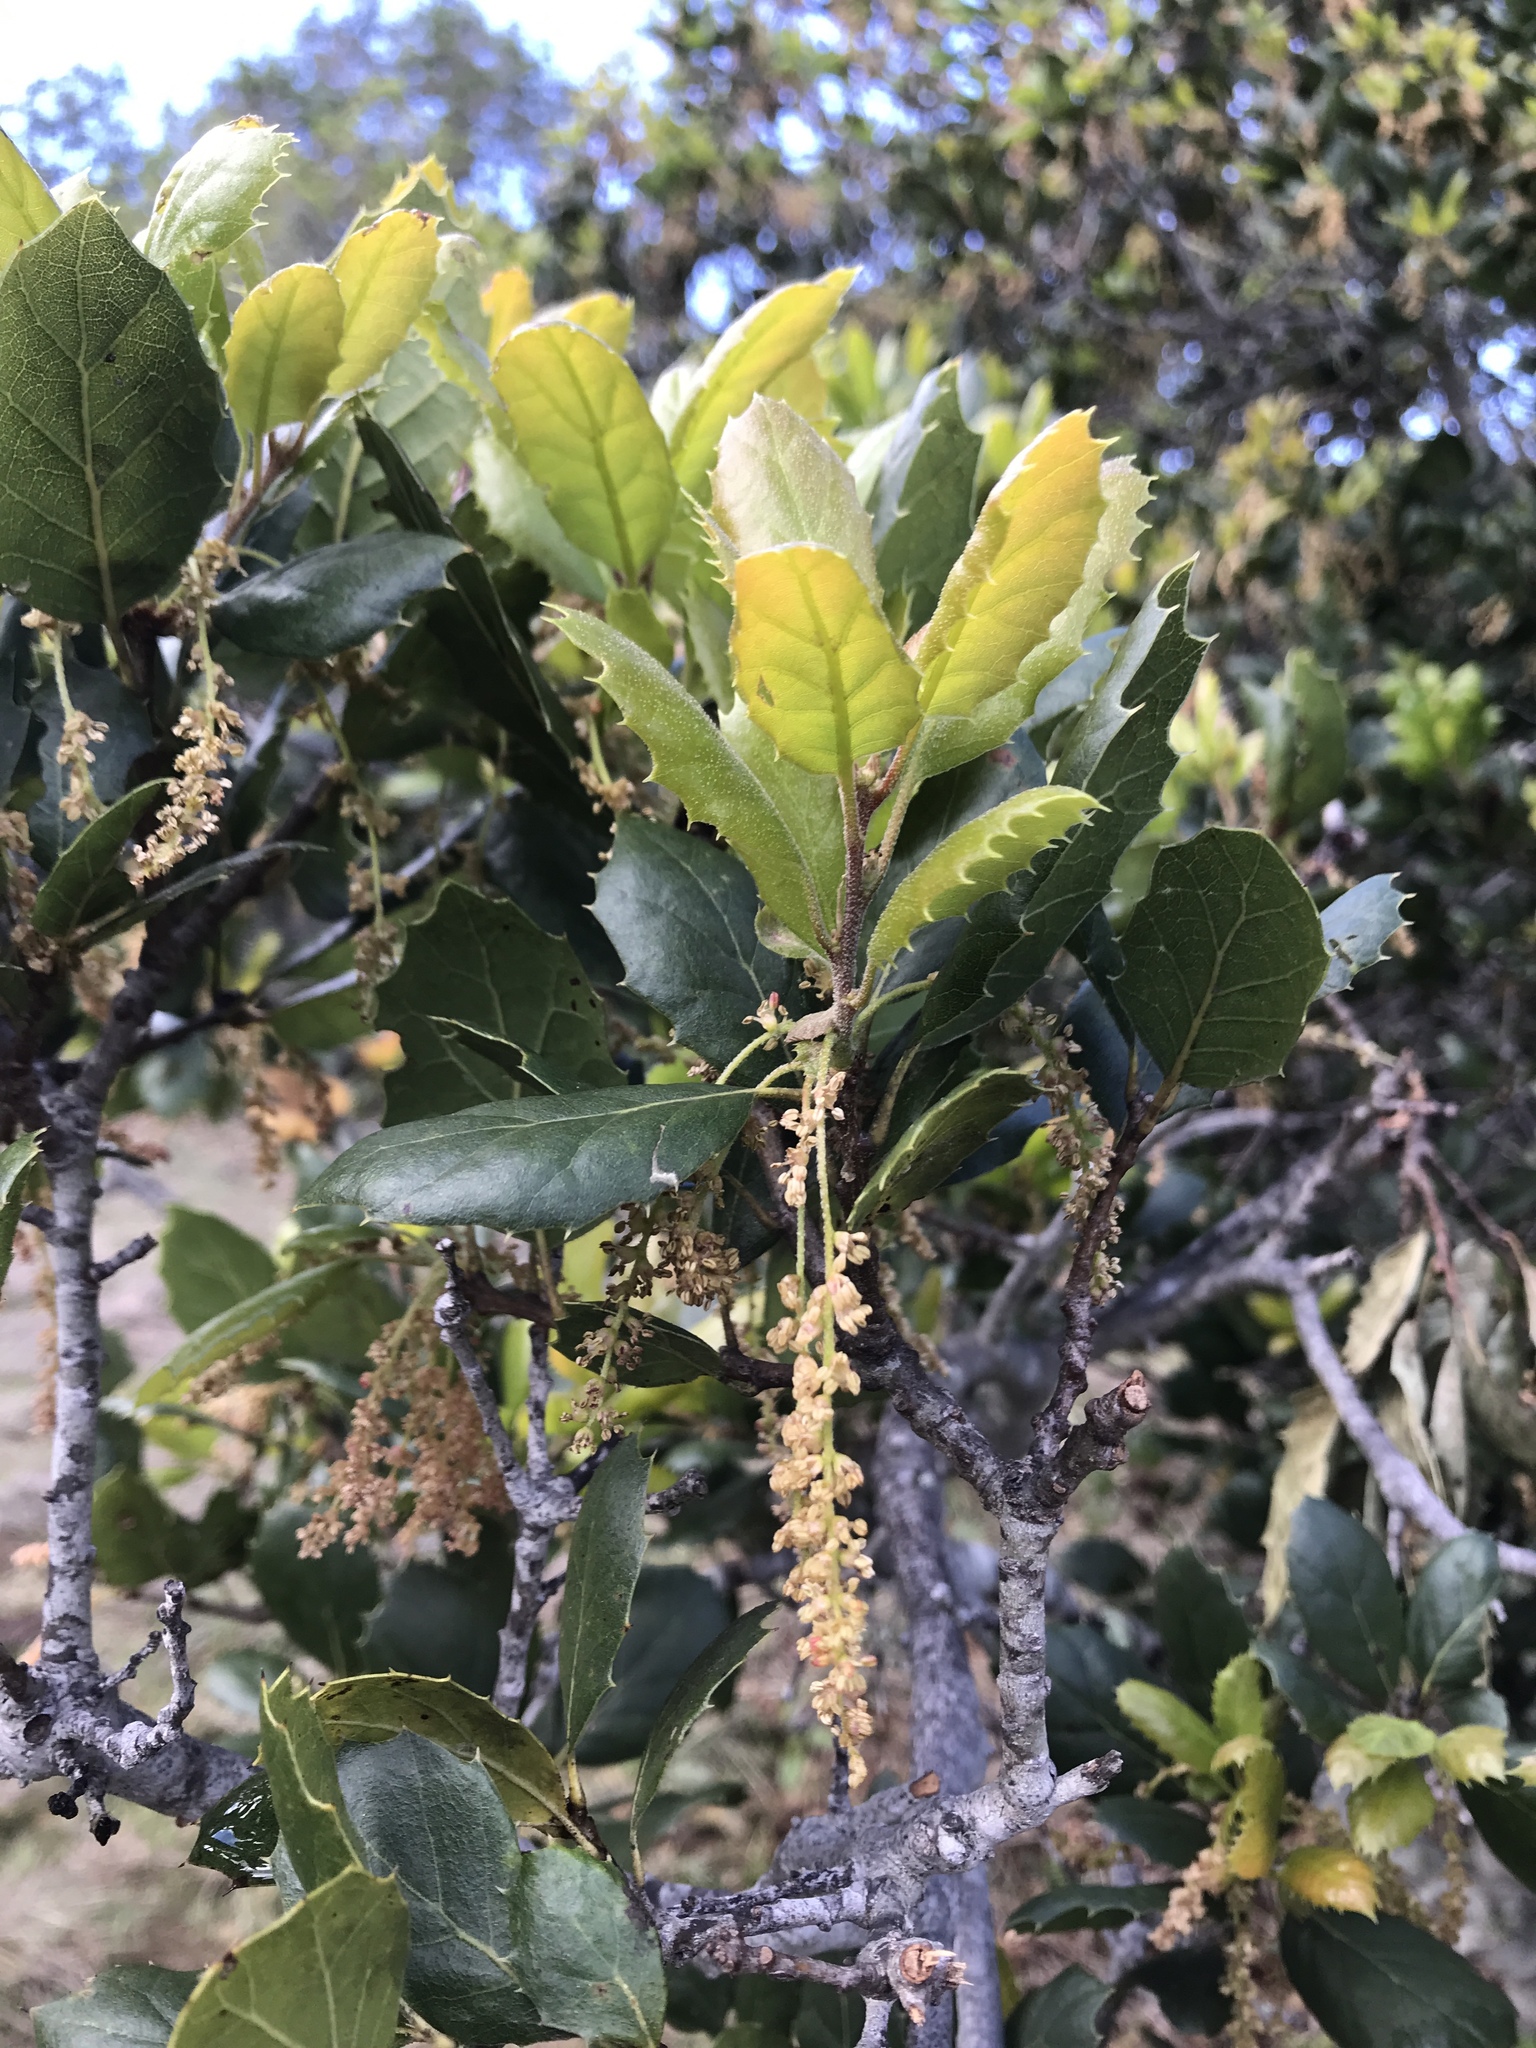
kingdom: Plantae
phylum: Tracheophyta
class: Magnoliopsida
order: Fagales
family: Fagaceae
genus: Quercus
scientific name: Quercus agrifolia
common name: California live oak
